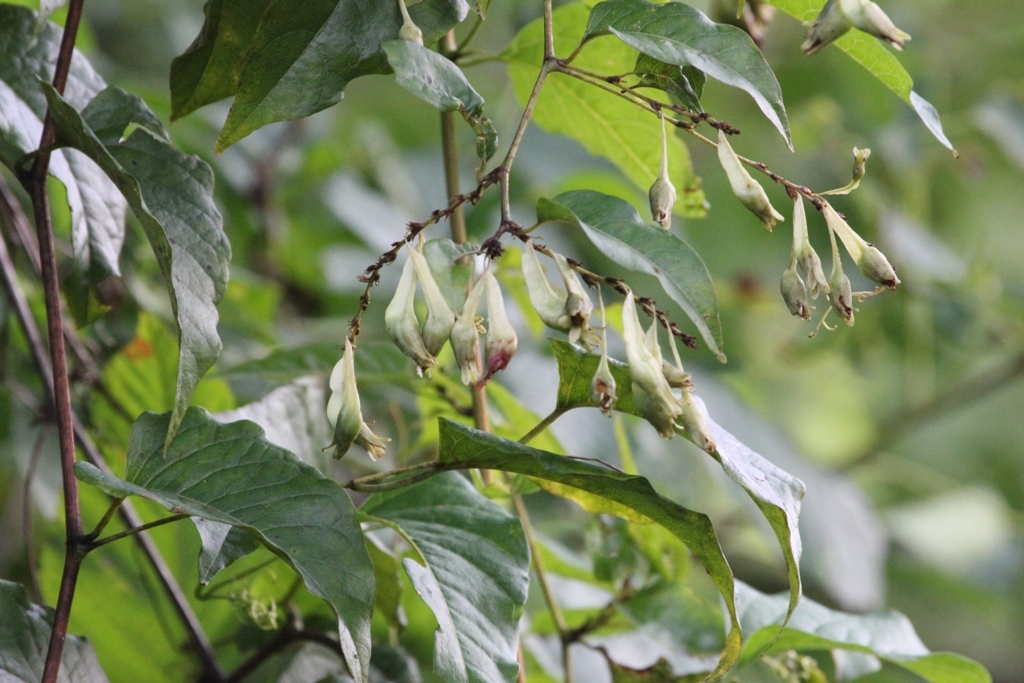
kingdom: Plantae
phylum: Tracheophyta
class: Magnoliopsida
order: Caryophyllales
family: Polygonaceae
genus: Brunnichia
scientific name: Brunnichia ovata
